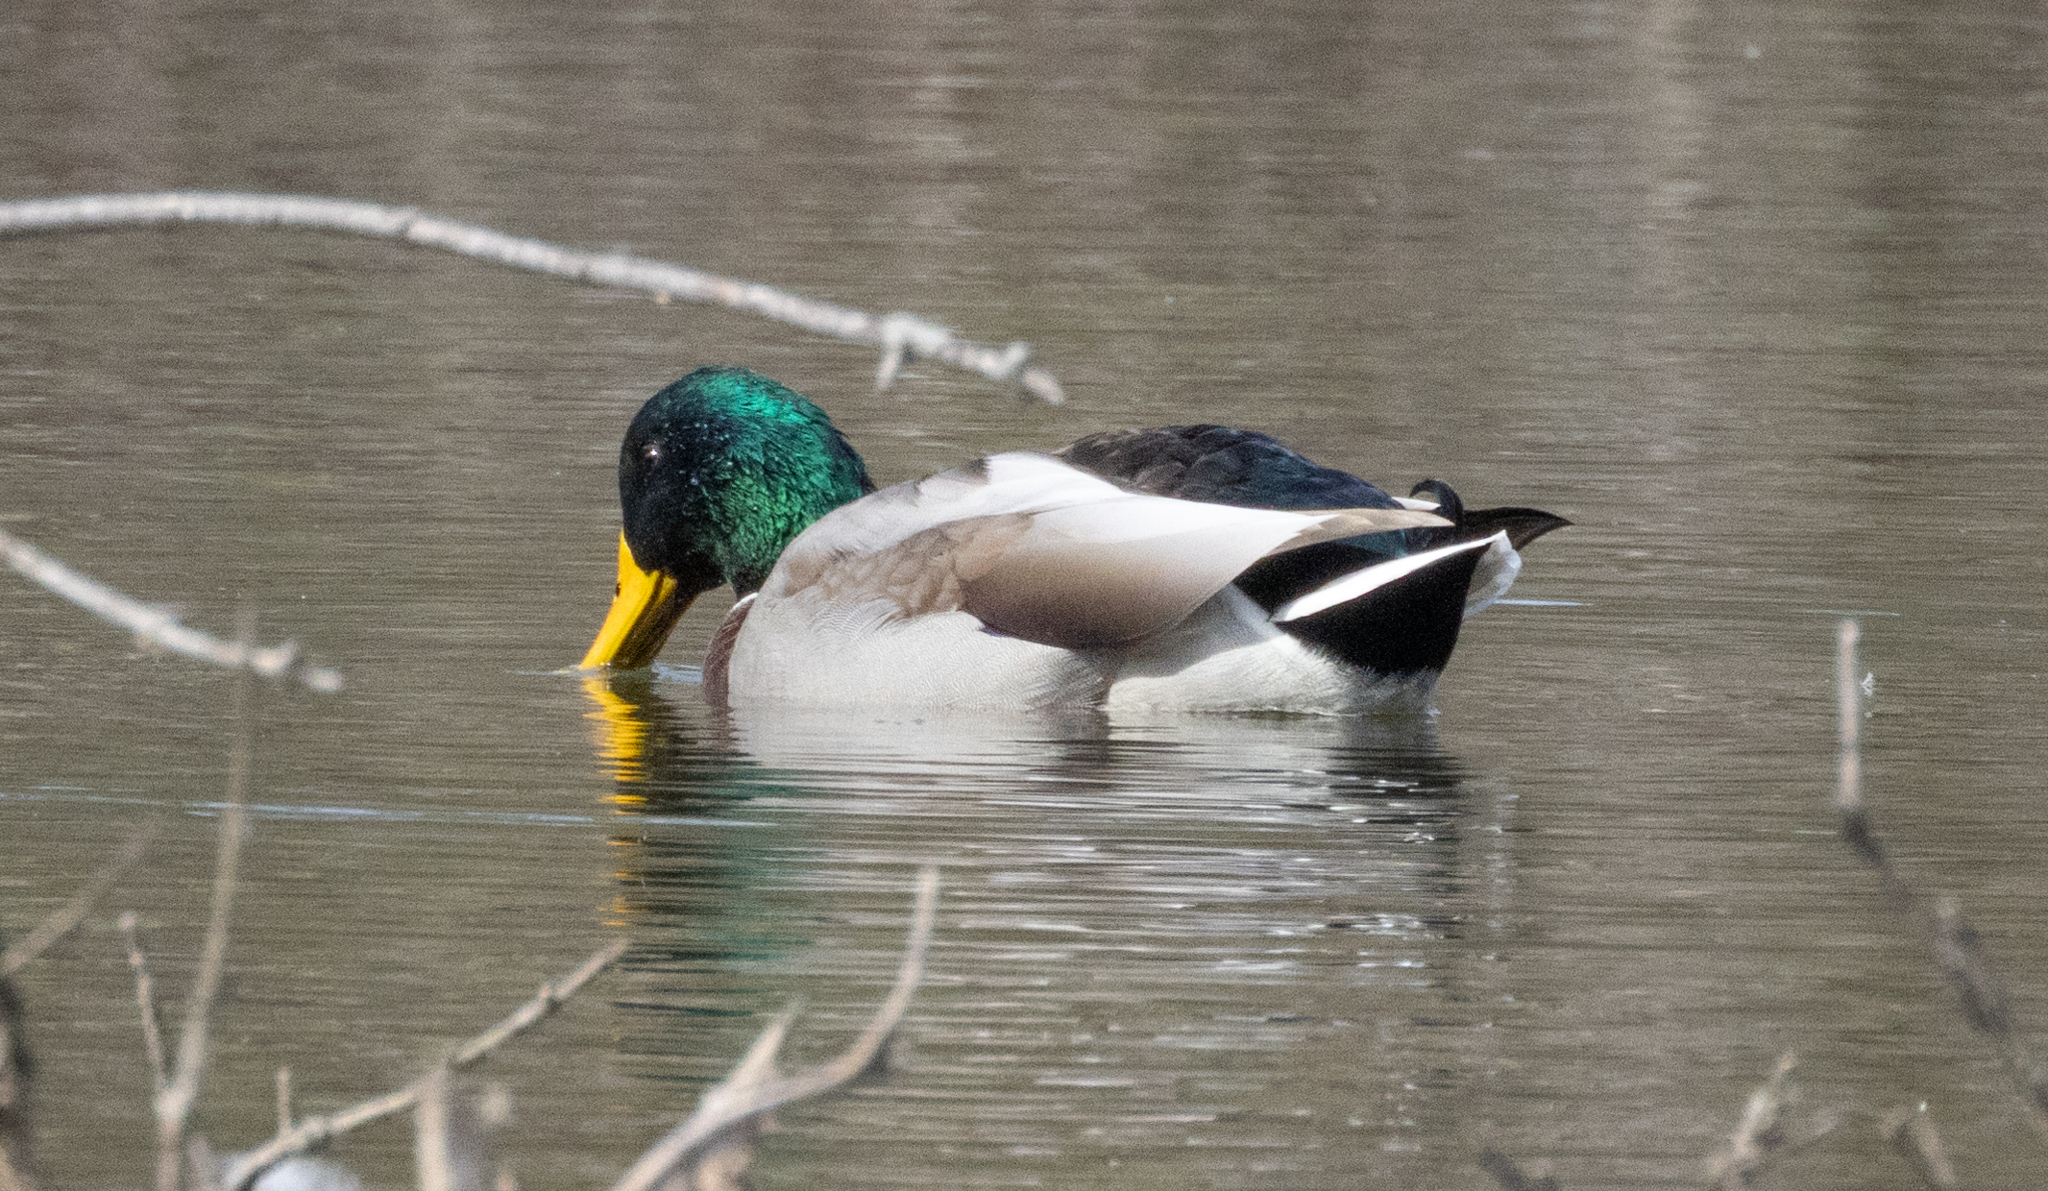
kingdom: Animalia
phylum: Chordata
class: Aves
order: Anseriformes
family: Anatidae
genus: Anas
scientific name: Anas platyrhynchos
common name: Mallard
